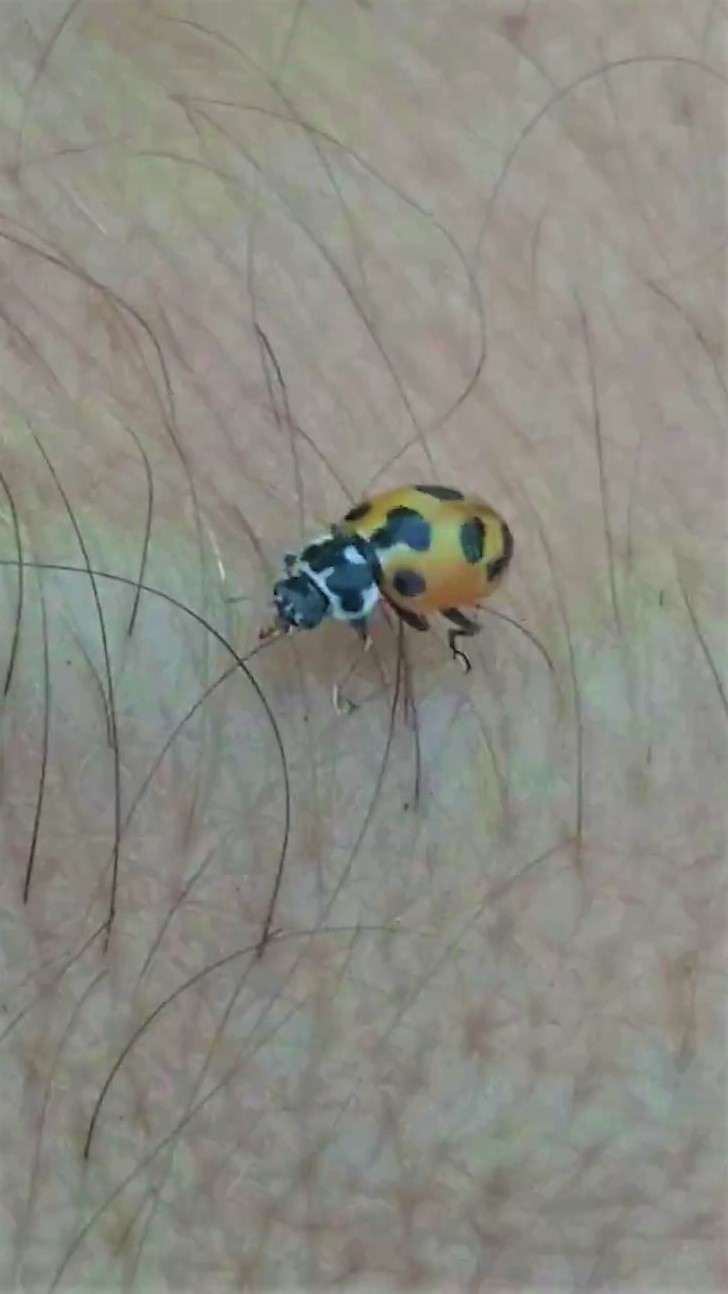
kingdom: Animalia
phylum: Arthropoda
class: Insecta
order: Coleoptera
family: Coccinellidae
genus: Hippodamia
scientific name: Hippodamia parenthesis
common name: Parenthesis lady beetle
